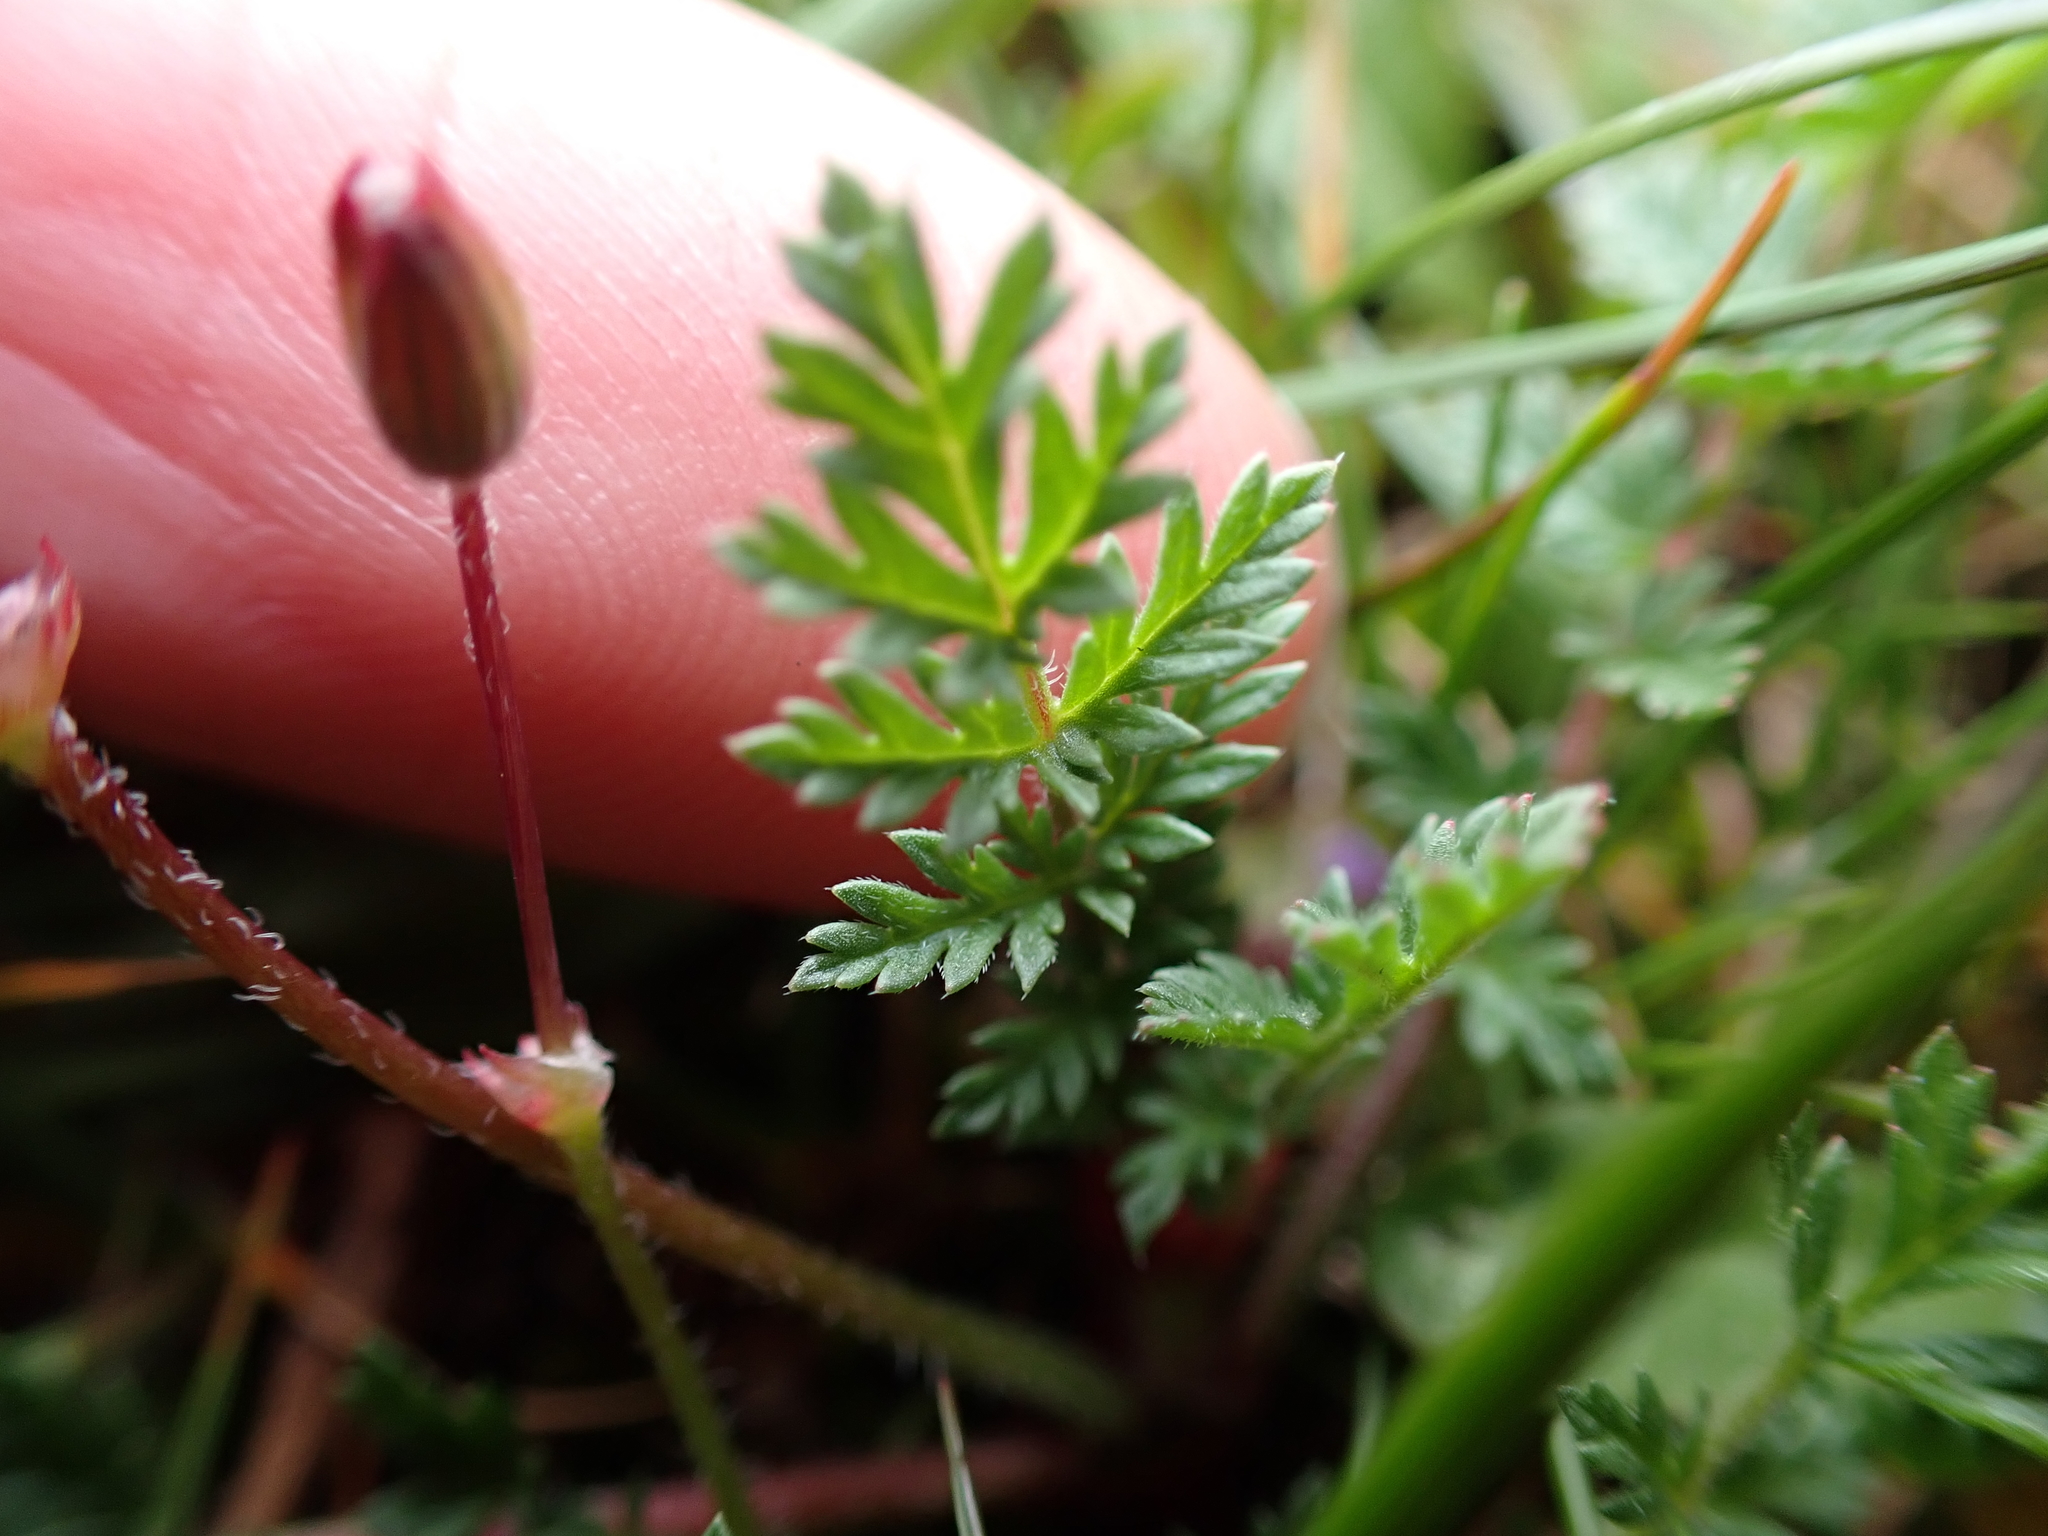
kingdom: Plantae
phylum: Tracheophyta
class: Magnoliopsida
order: Geraniales
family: Geraniaceae
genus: Erodium
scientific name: Erodium cicutarium
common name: Common stork's-bill
